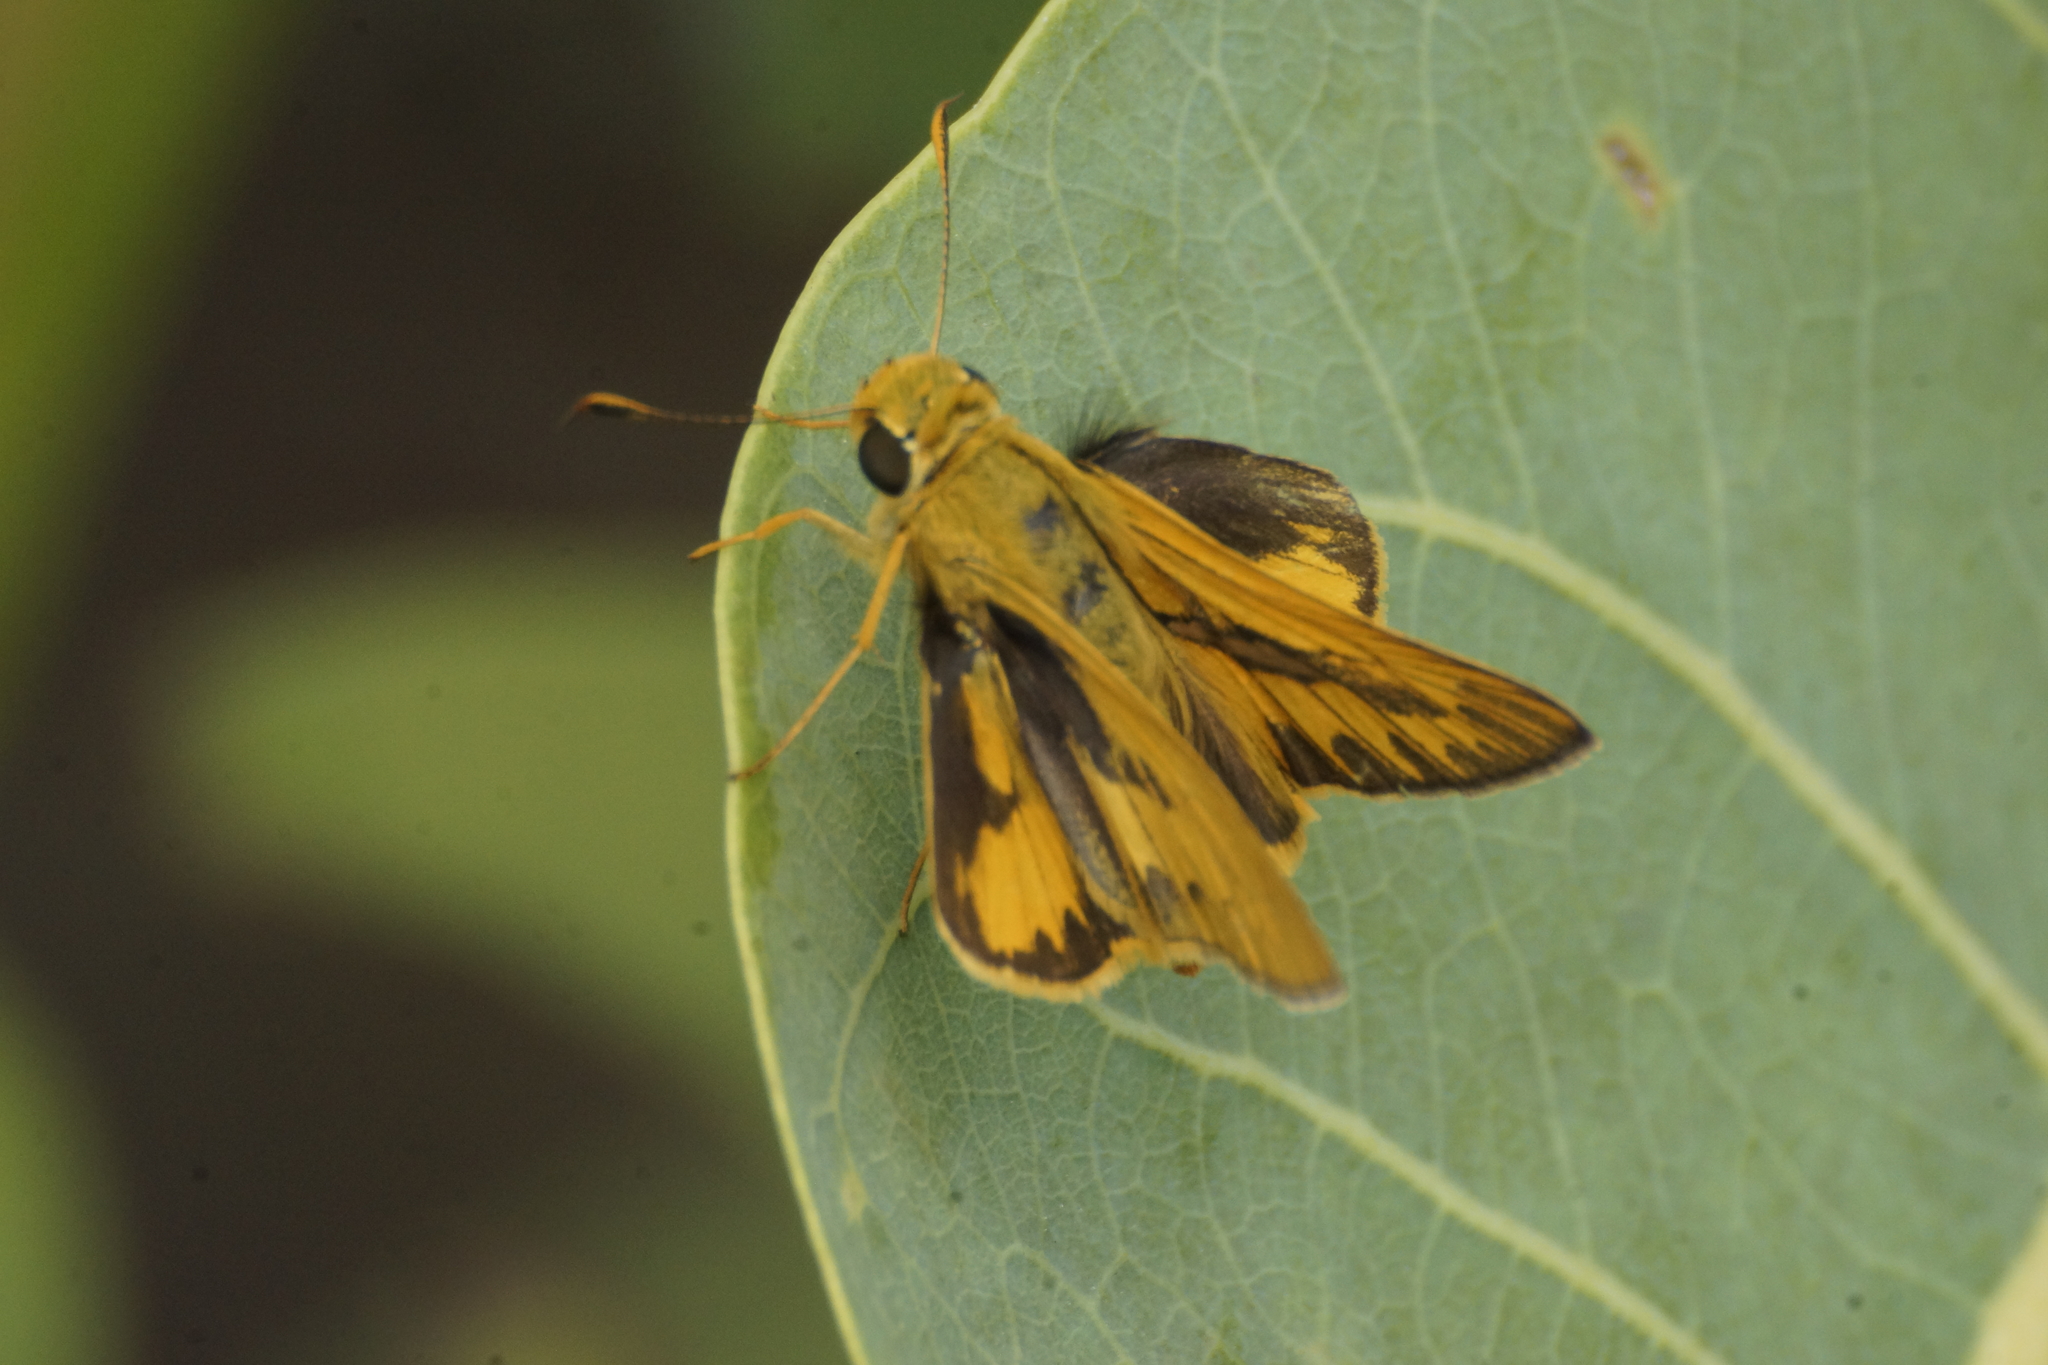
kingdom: Animalia
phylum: Arthropoda
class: Insecta
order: Lepidoptera
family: Hesperiidae
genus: Telicota
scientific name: Telicota colon
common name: Pale palm dart
